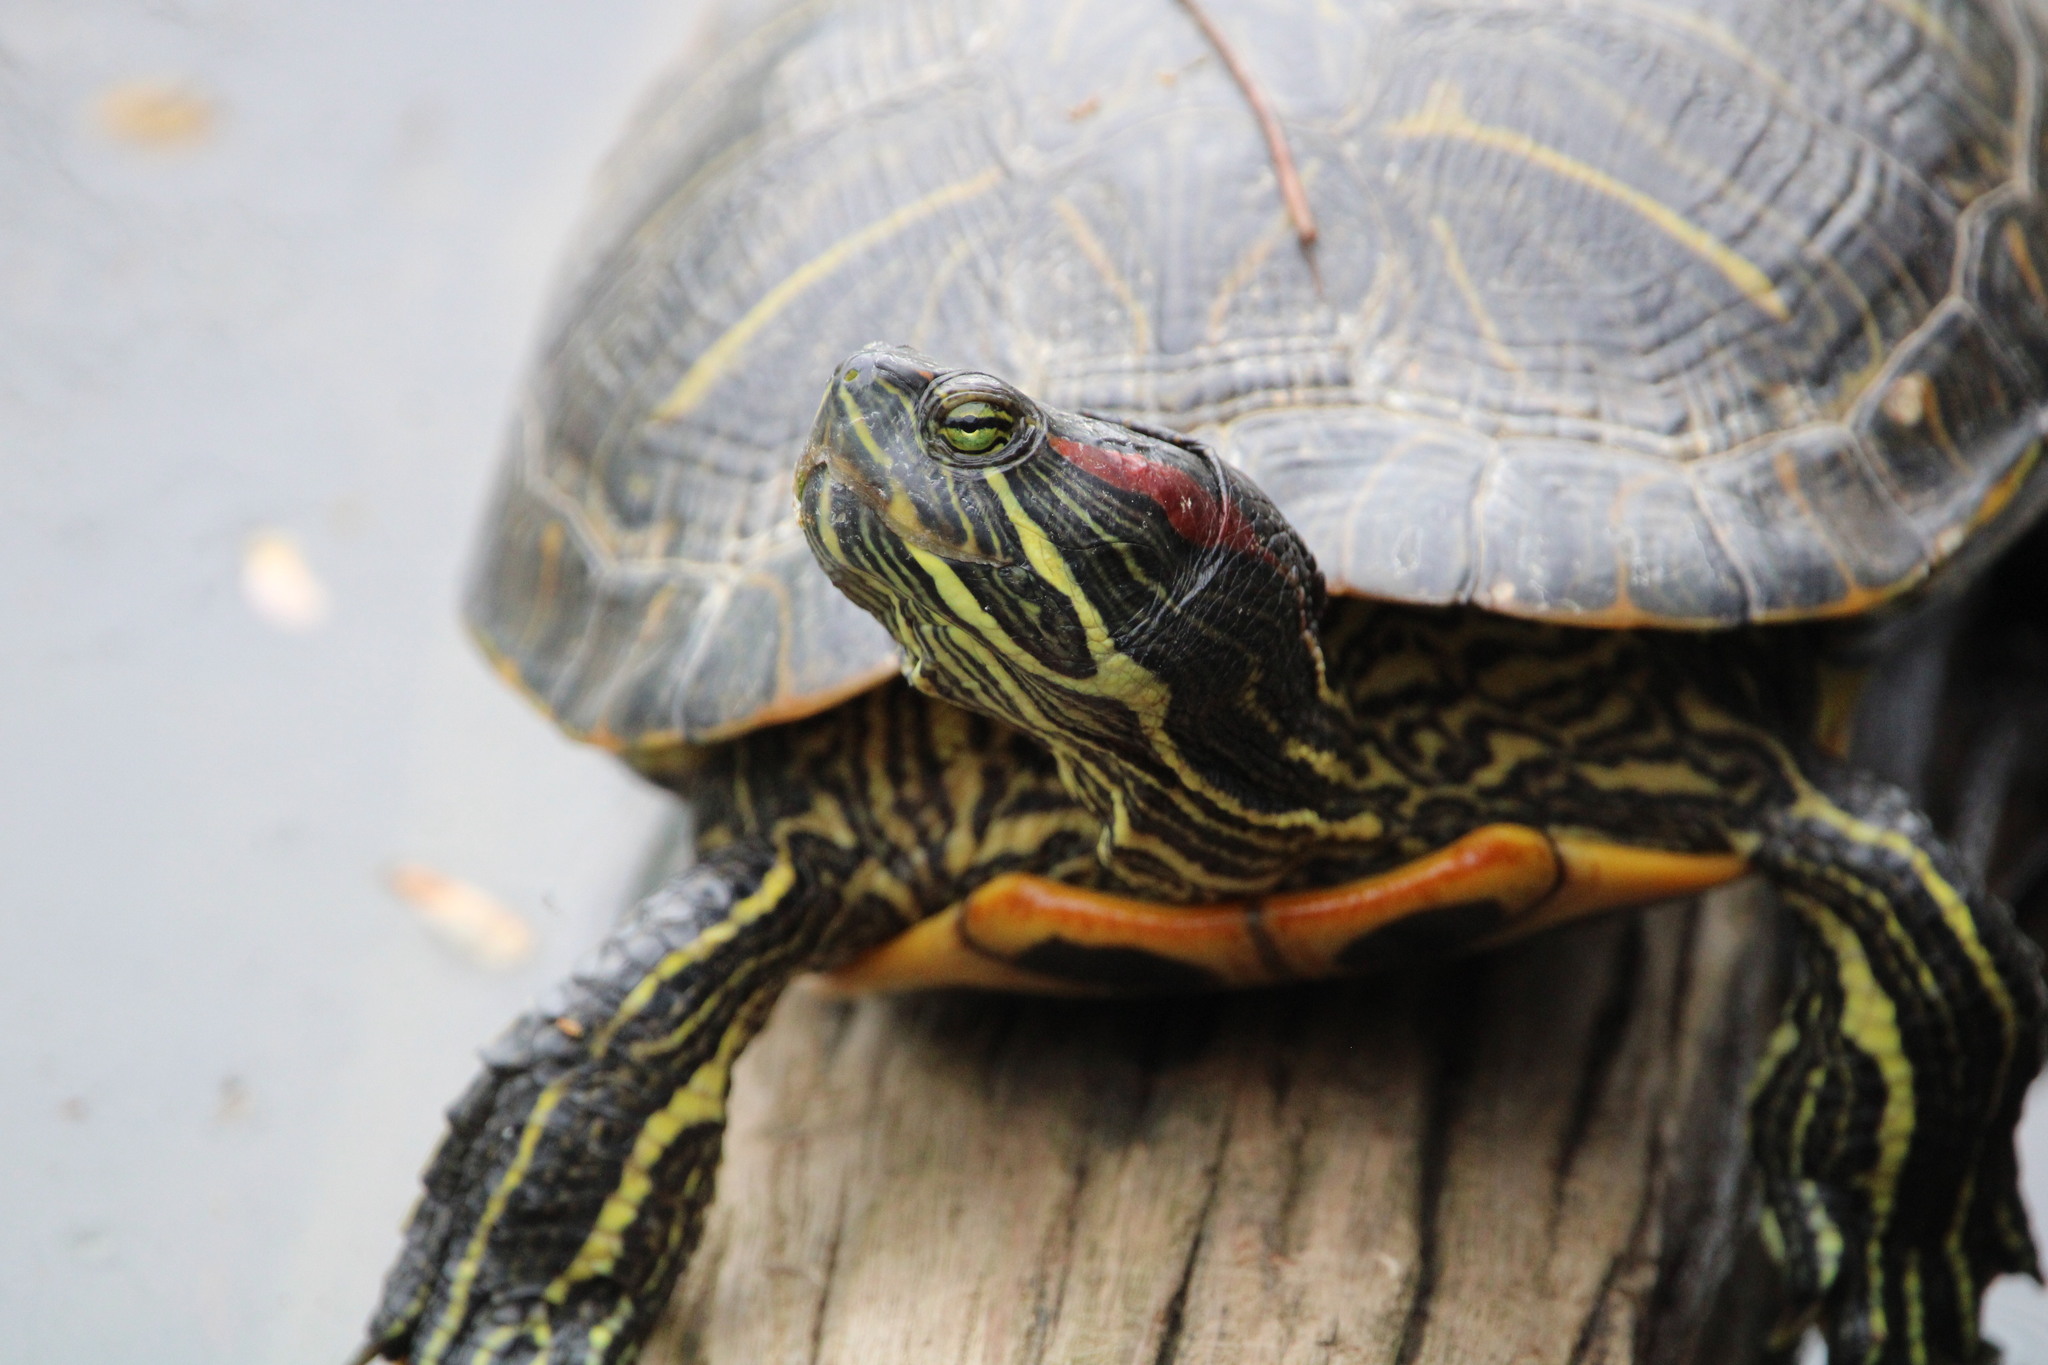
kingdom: Animalia
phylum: Chordata
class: Testudines
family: Emydidae
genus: Trachemys
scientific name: Trachemys scripta
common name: Slider
